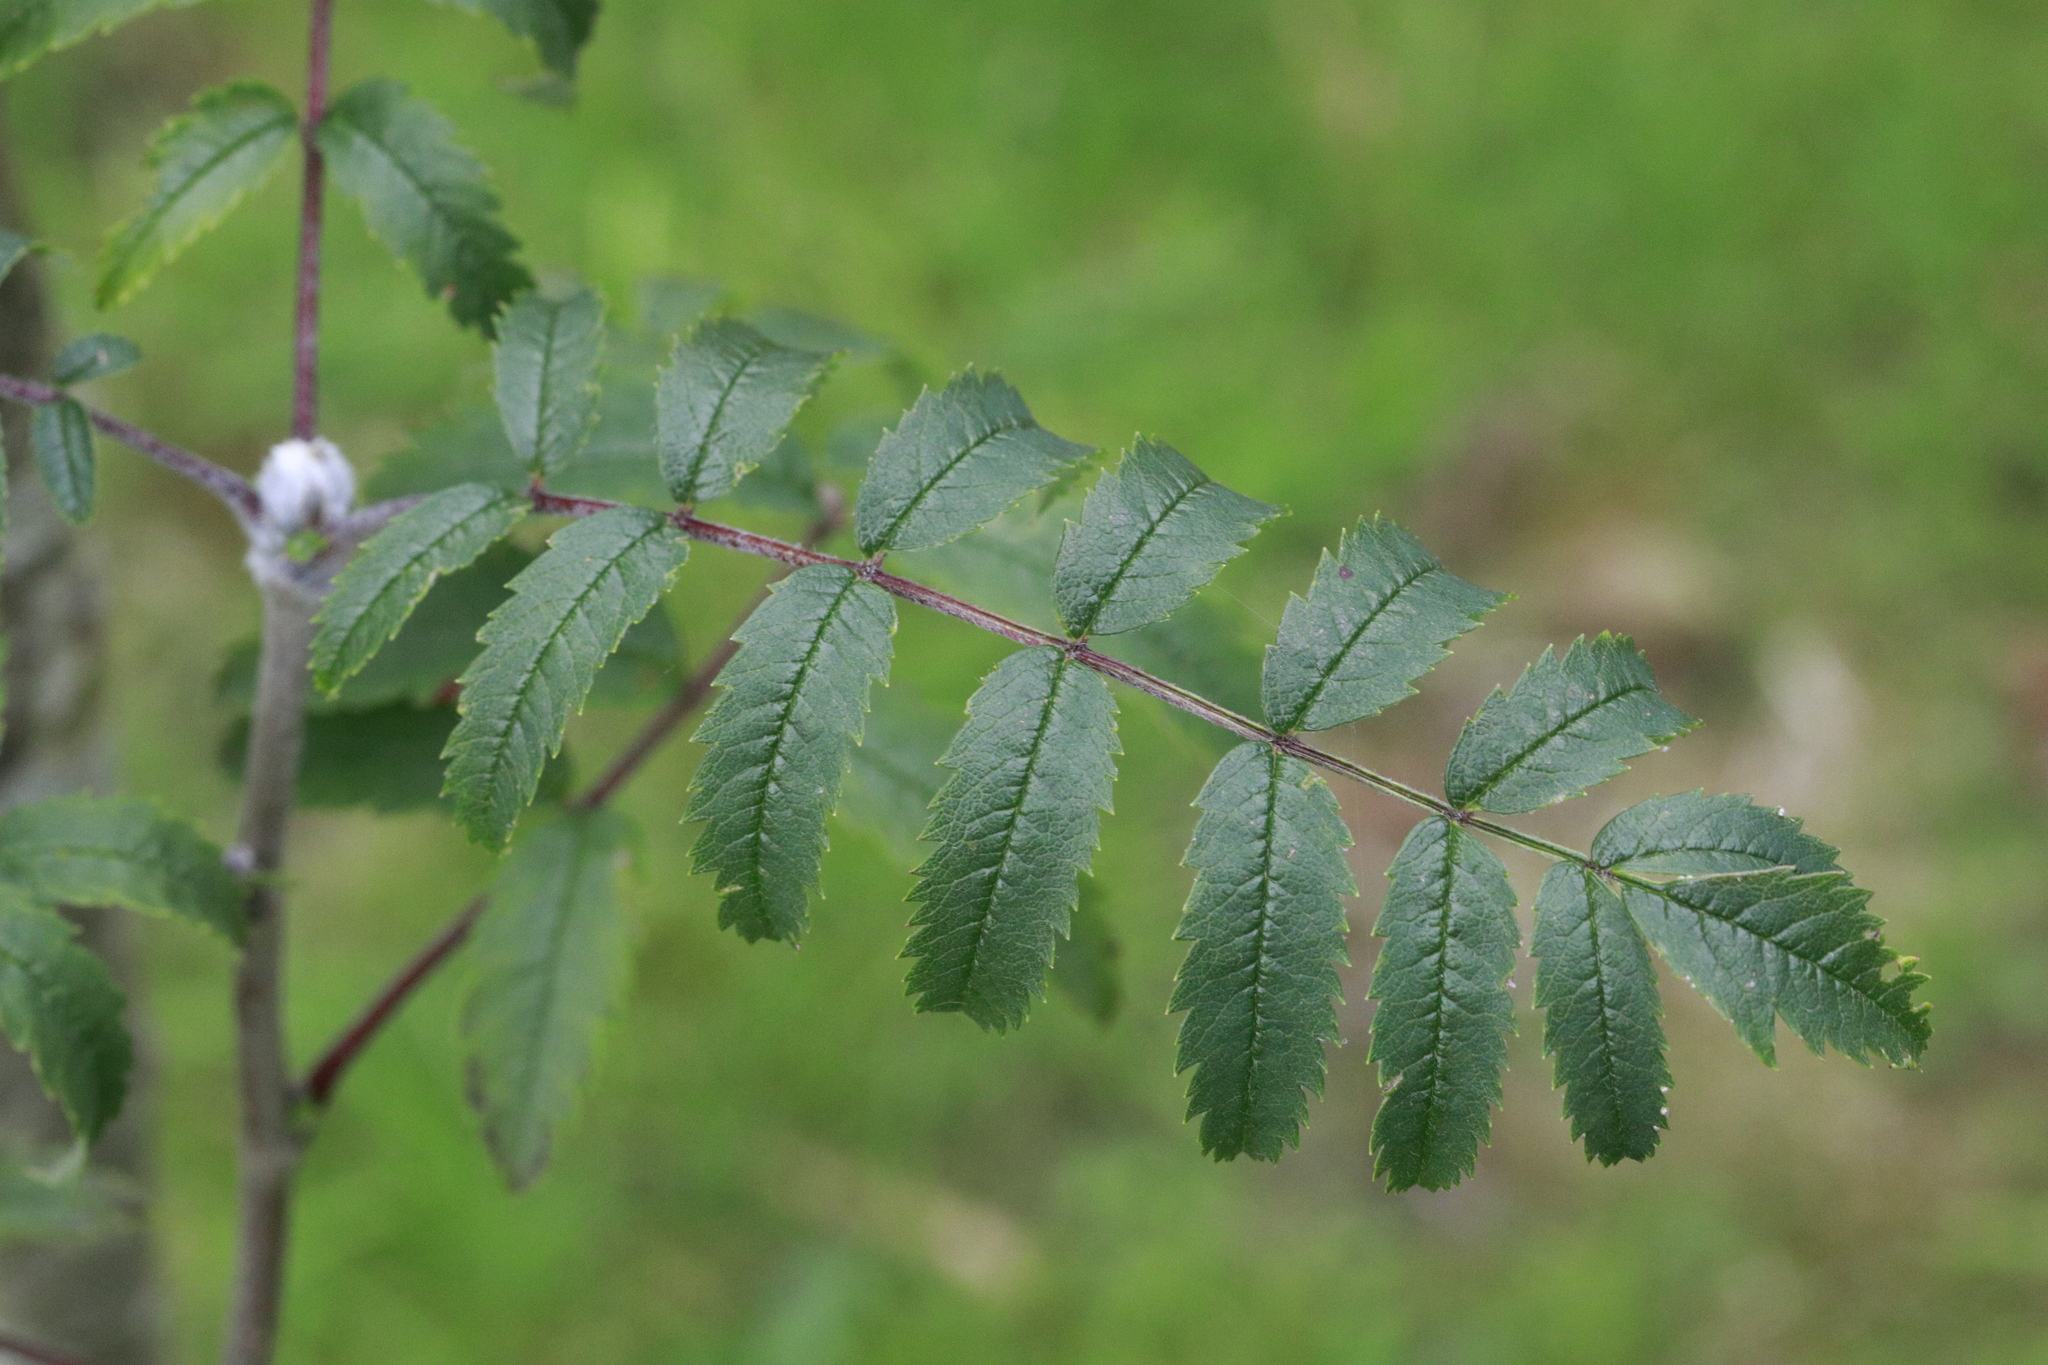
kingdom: Plantae
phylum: Tracheophyta
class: Magnoliopsida
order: Rosales
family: Rosaceae
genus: Sorbus
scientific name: Sorbus aucuparia
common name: Rowan
